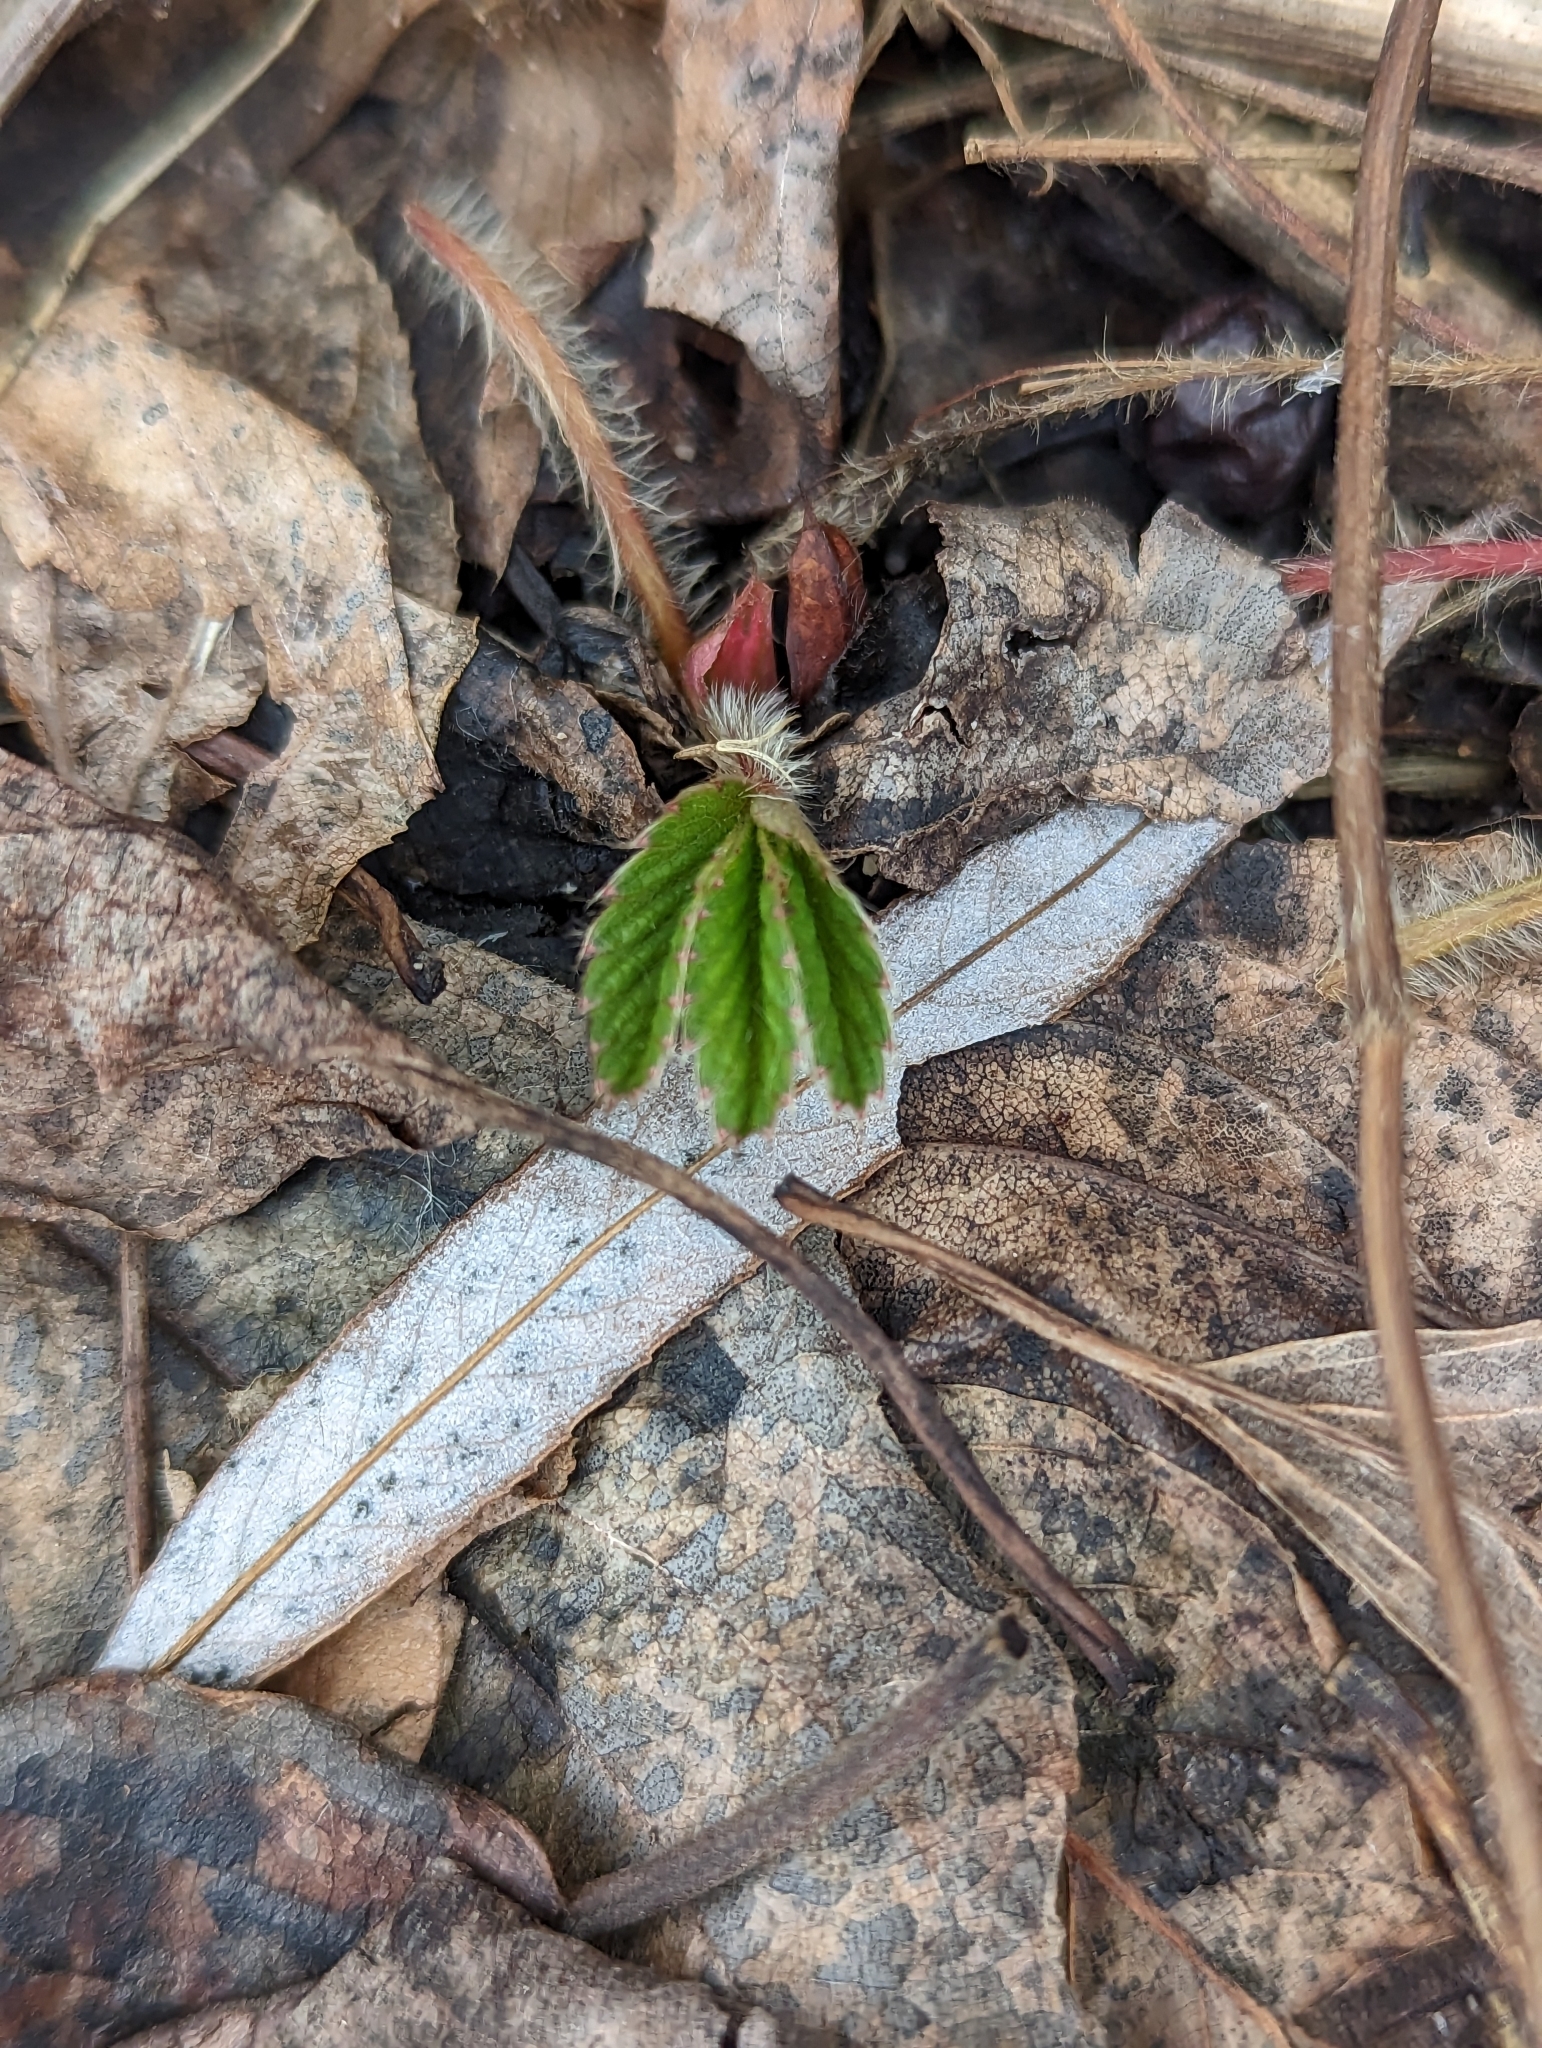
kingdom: Plantae
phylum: Tracheophyta
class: Magnoliopsida
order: Rosales
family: Rosaceae
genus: Fragaria
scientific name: Fragaria virginiana
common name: Thickleaved wild strawberry
